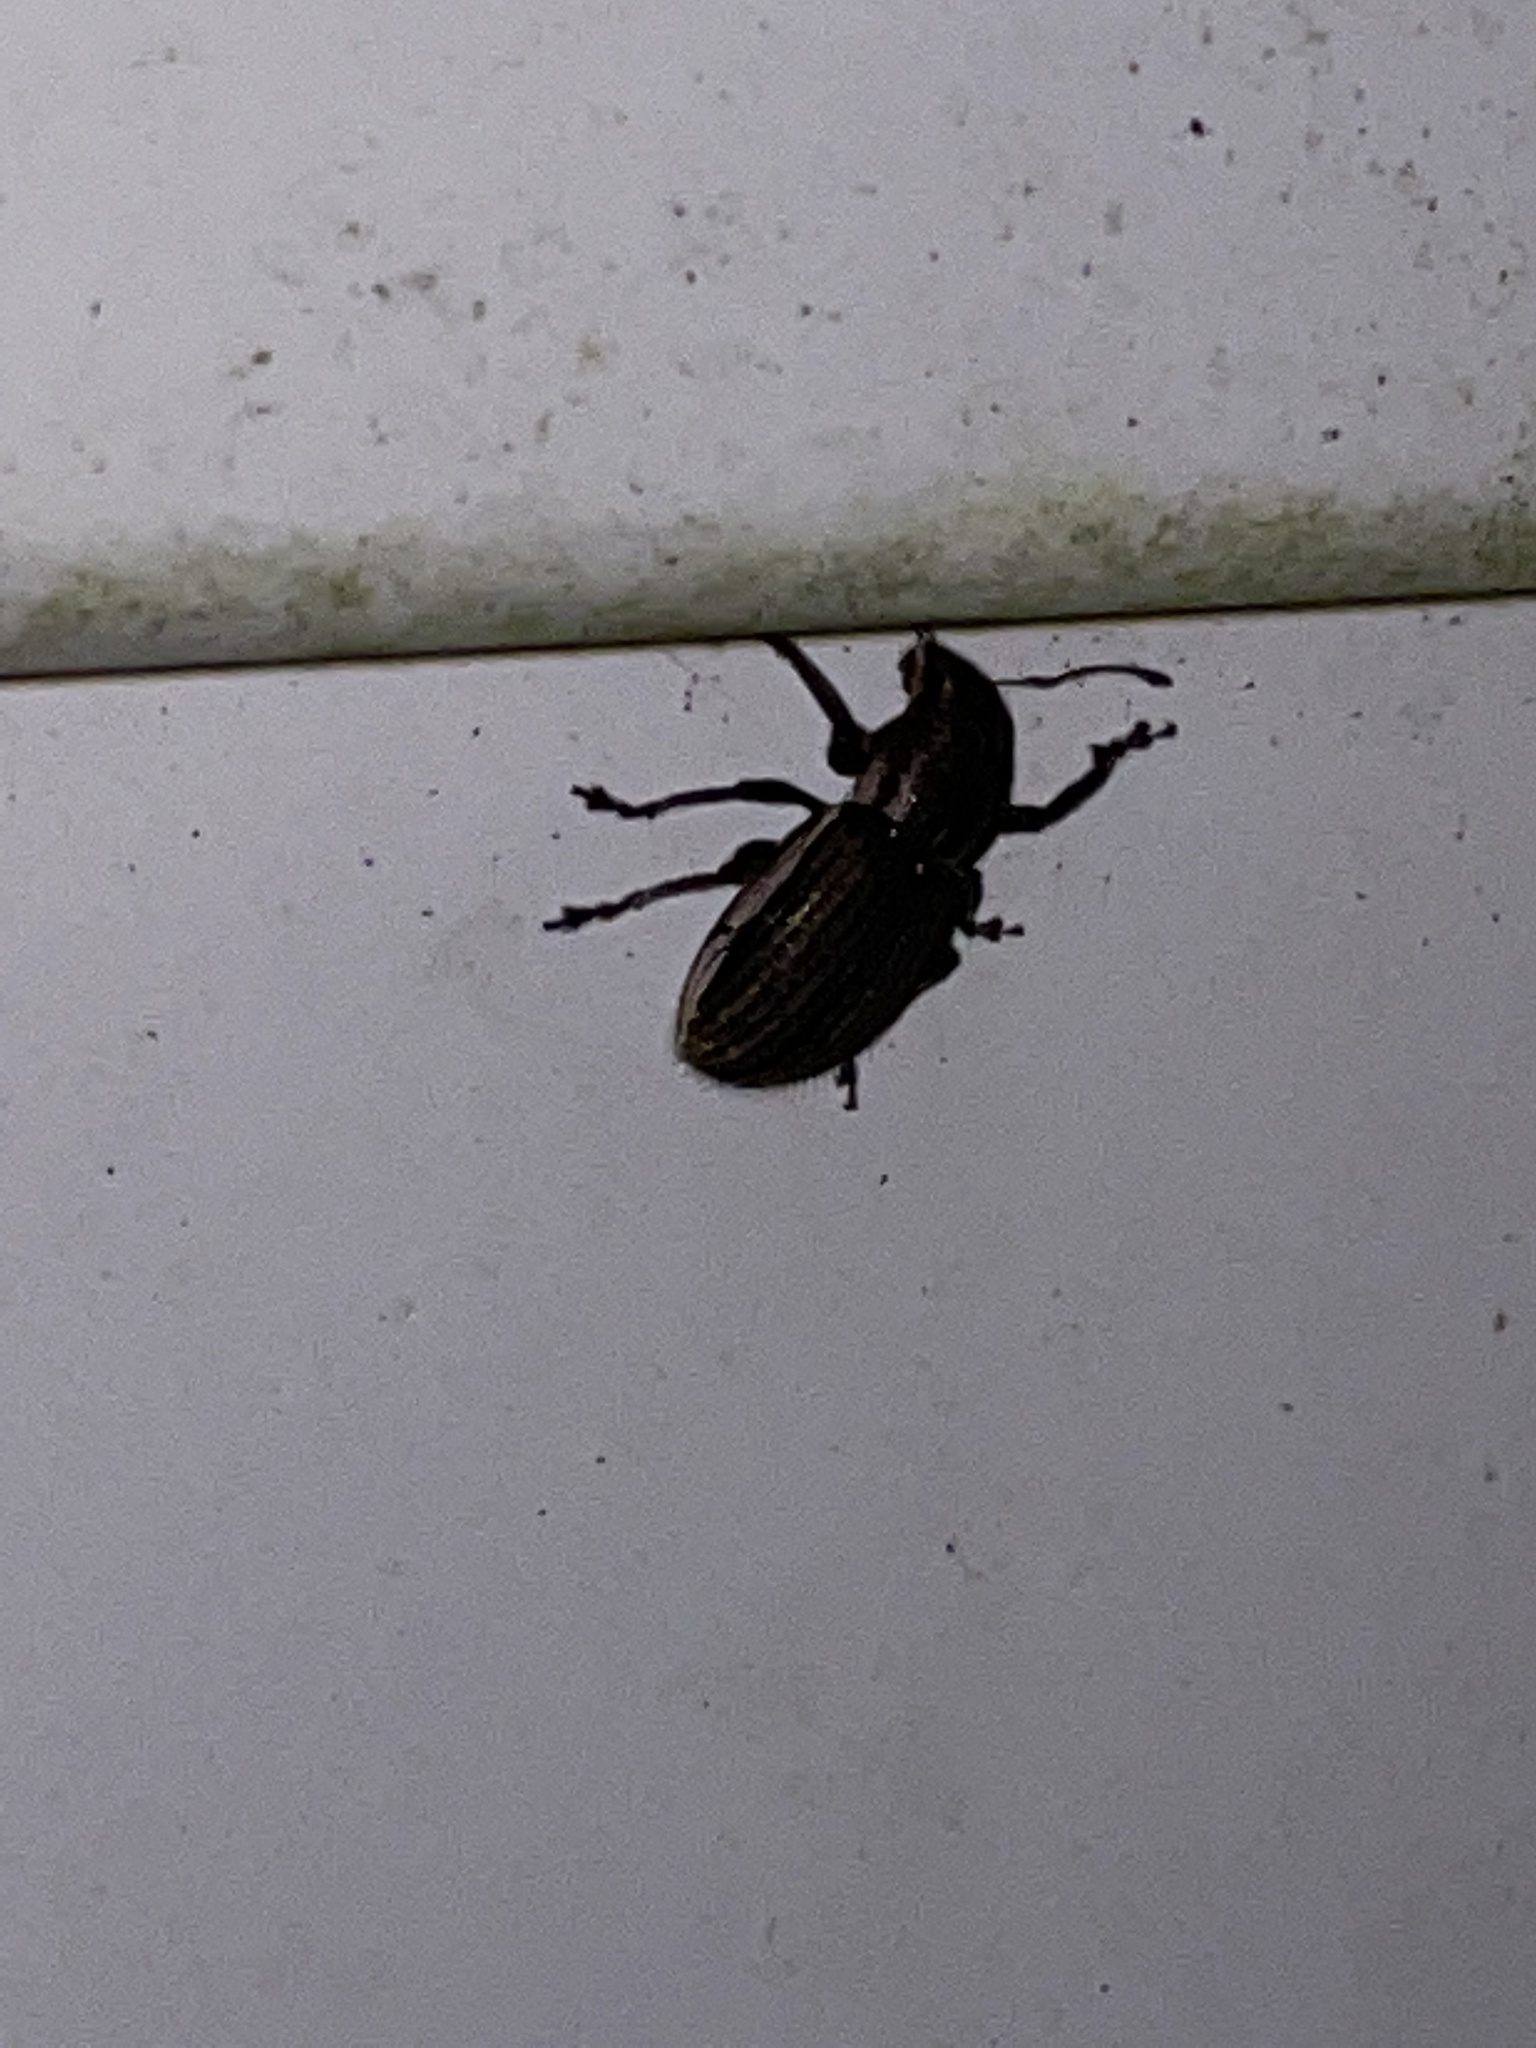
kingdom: Animalia
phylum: Arthropoda
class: Insecta
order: Coleoptera
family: Curculionidae
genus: Naupactus
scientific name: Naupactus leucoloma
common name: Whitefringed beetle
